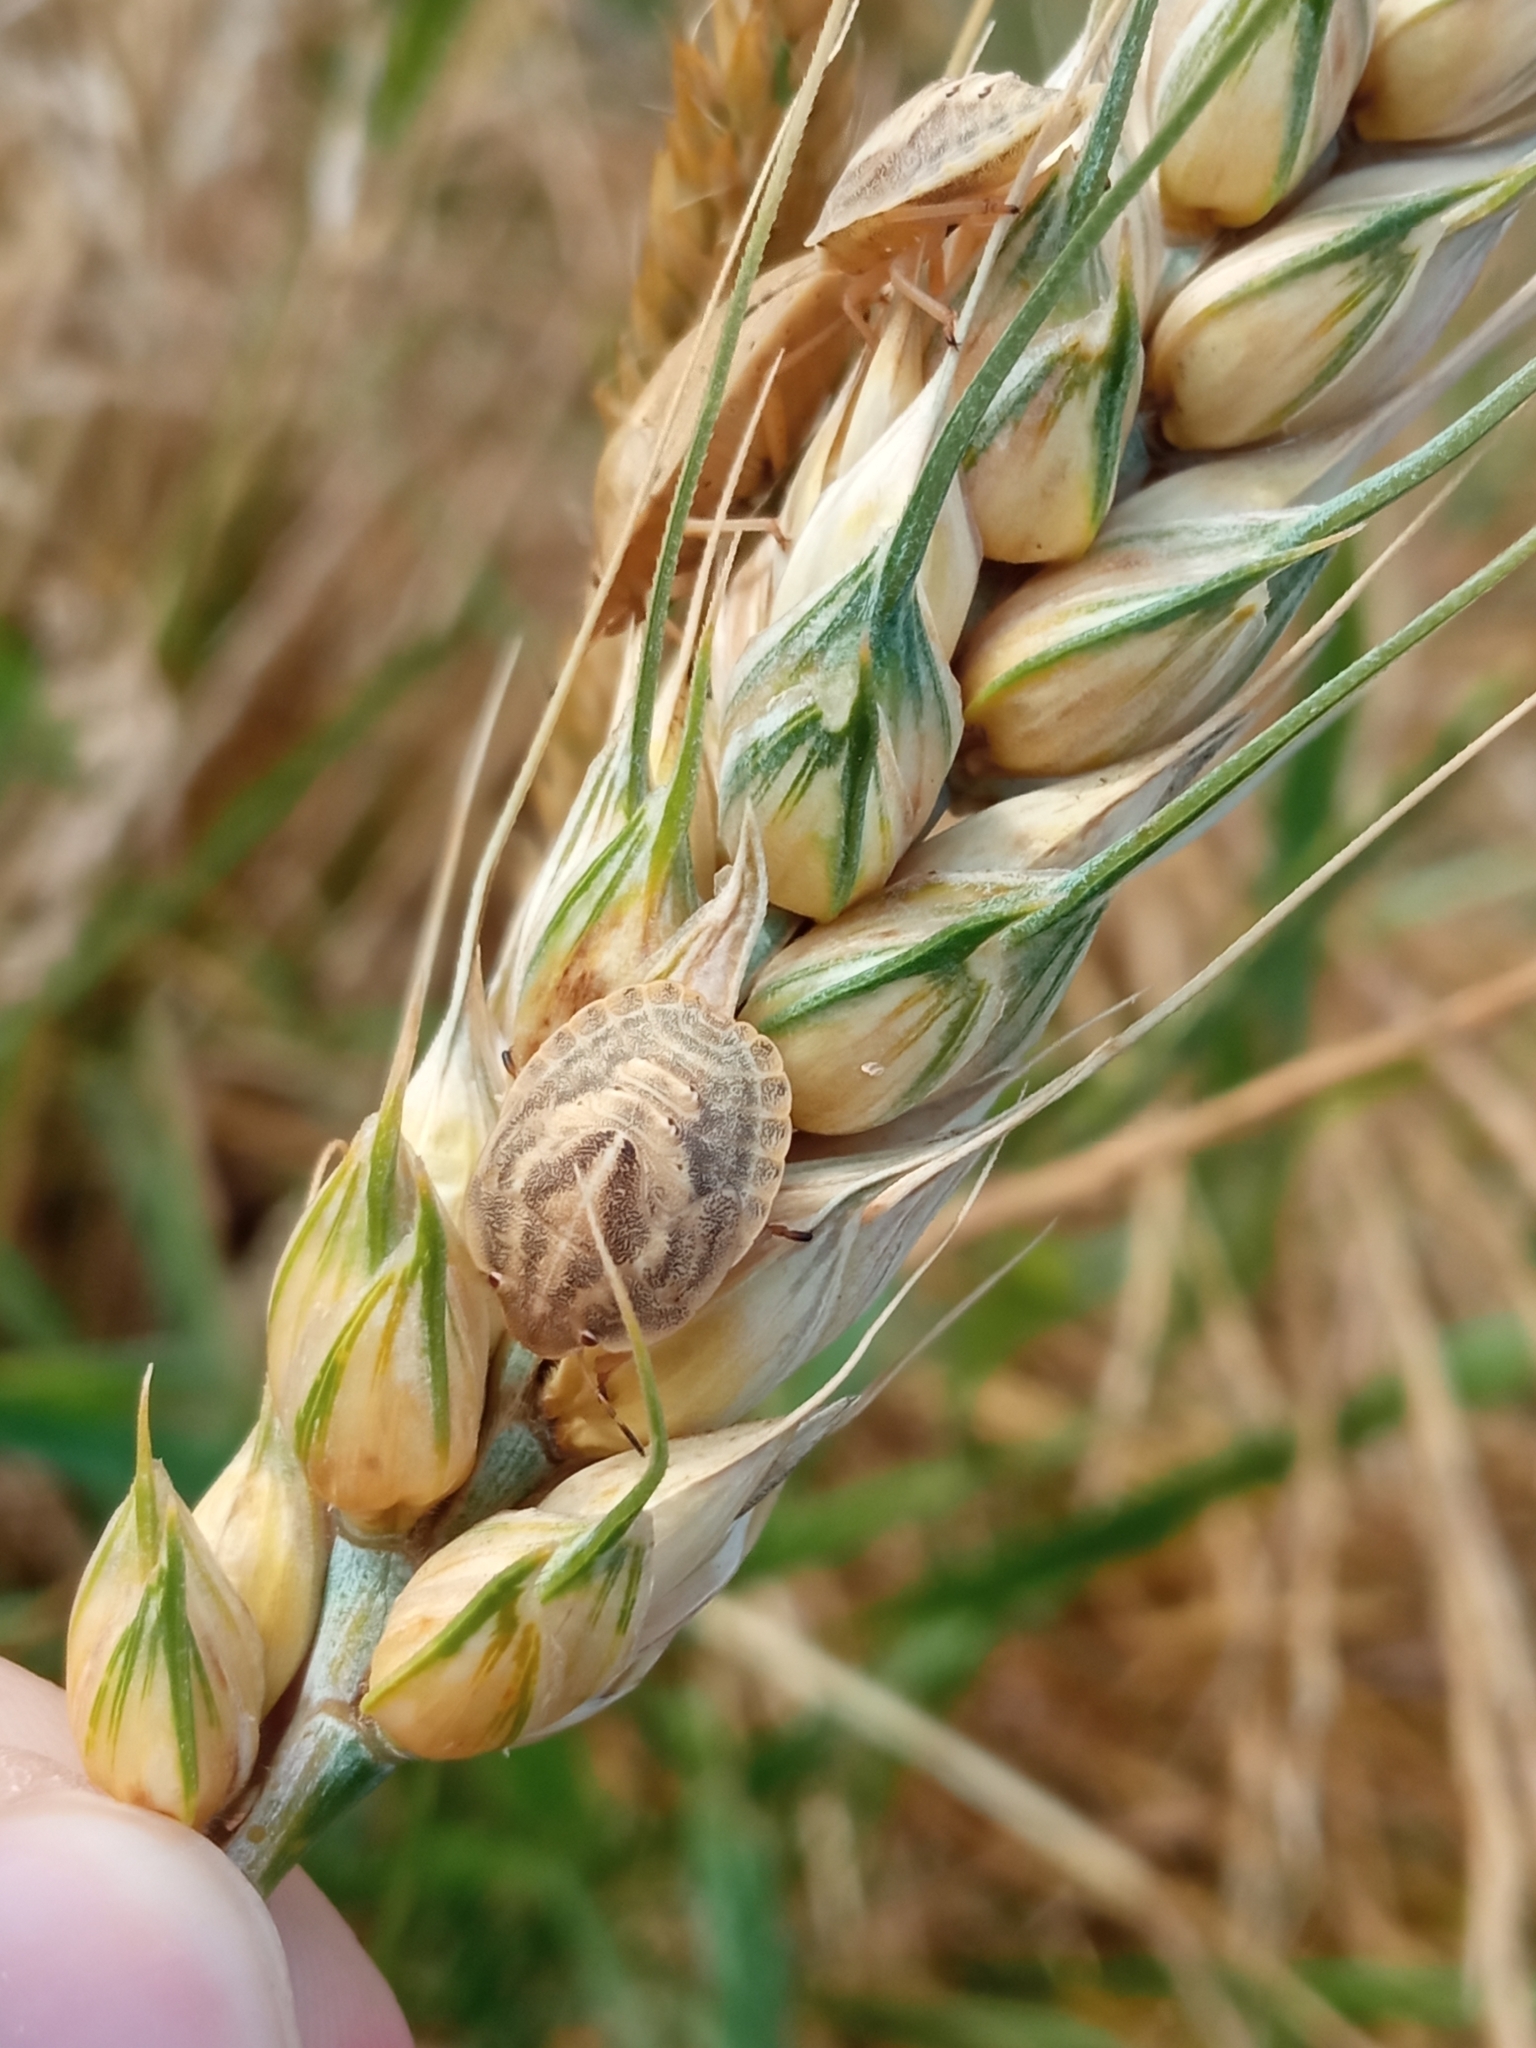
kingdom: Animalia
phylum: Arthropoda
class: Insecta
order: Hemiptera
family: Scutelleridae
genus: Eurygaster
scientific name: Eurygaster austriaca
